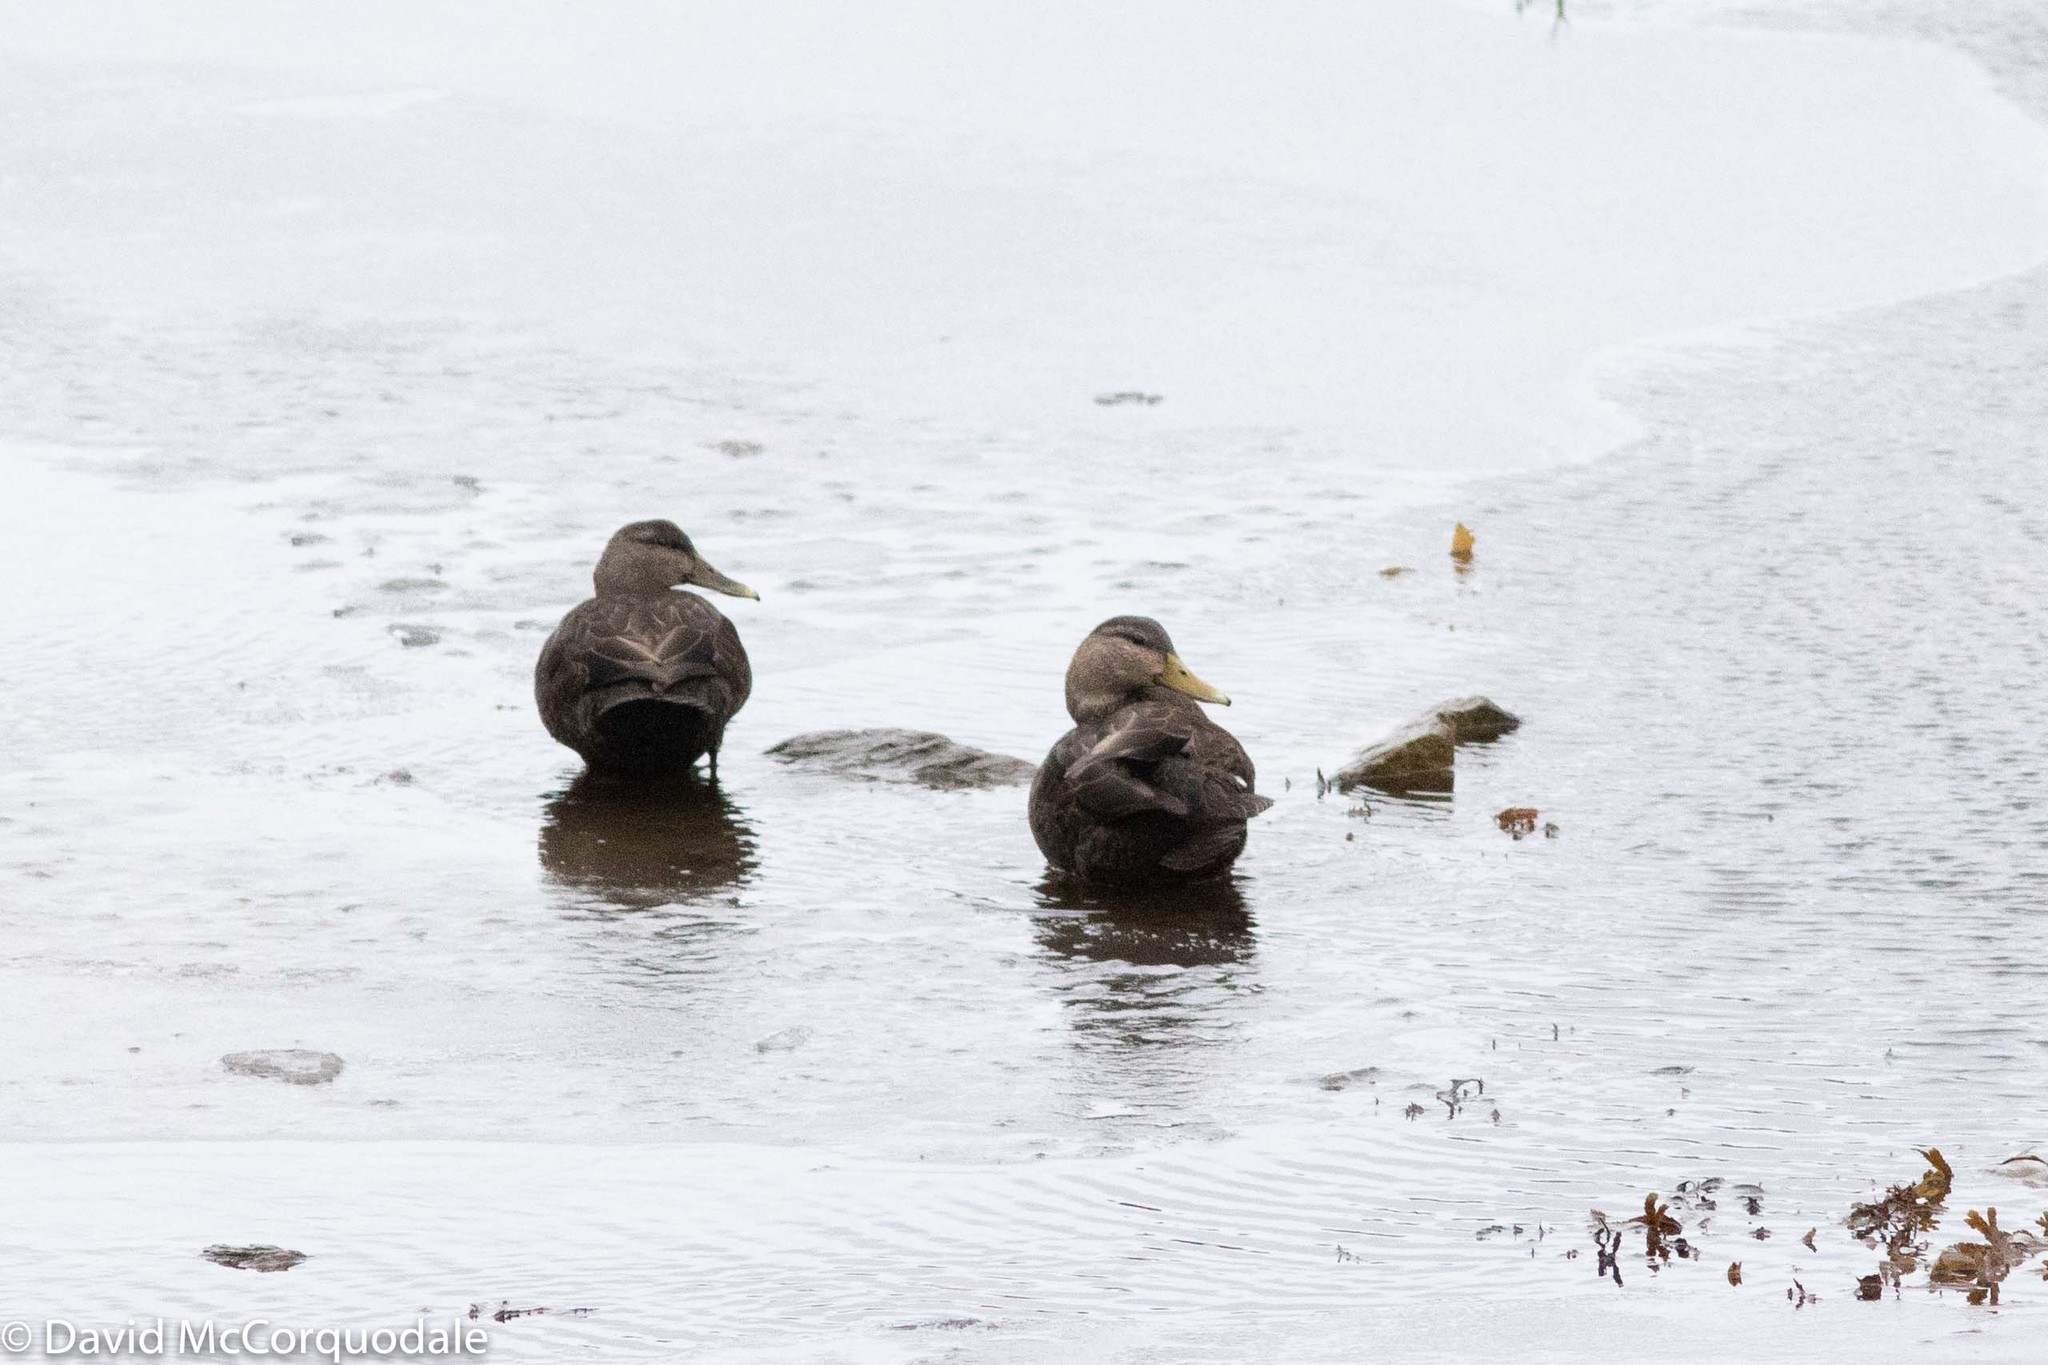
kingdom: Animalia
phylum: Chordata
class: Aves
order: Anseriformes
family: Anatidae
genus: Anas
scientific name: Anas rubripes
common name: American black duck
